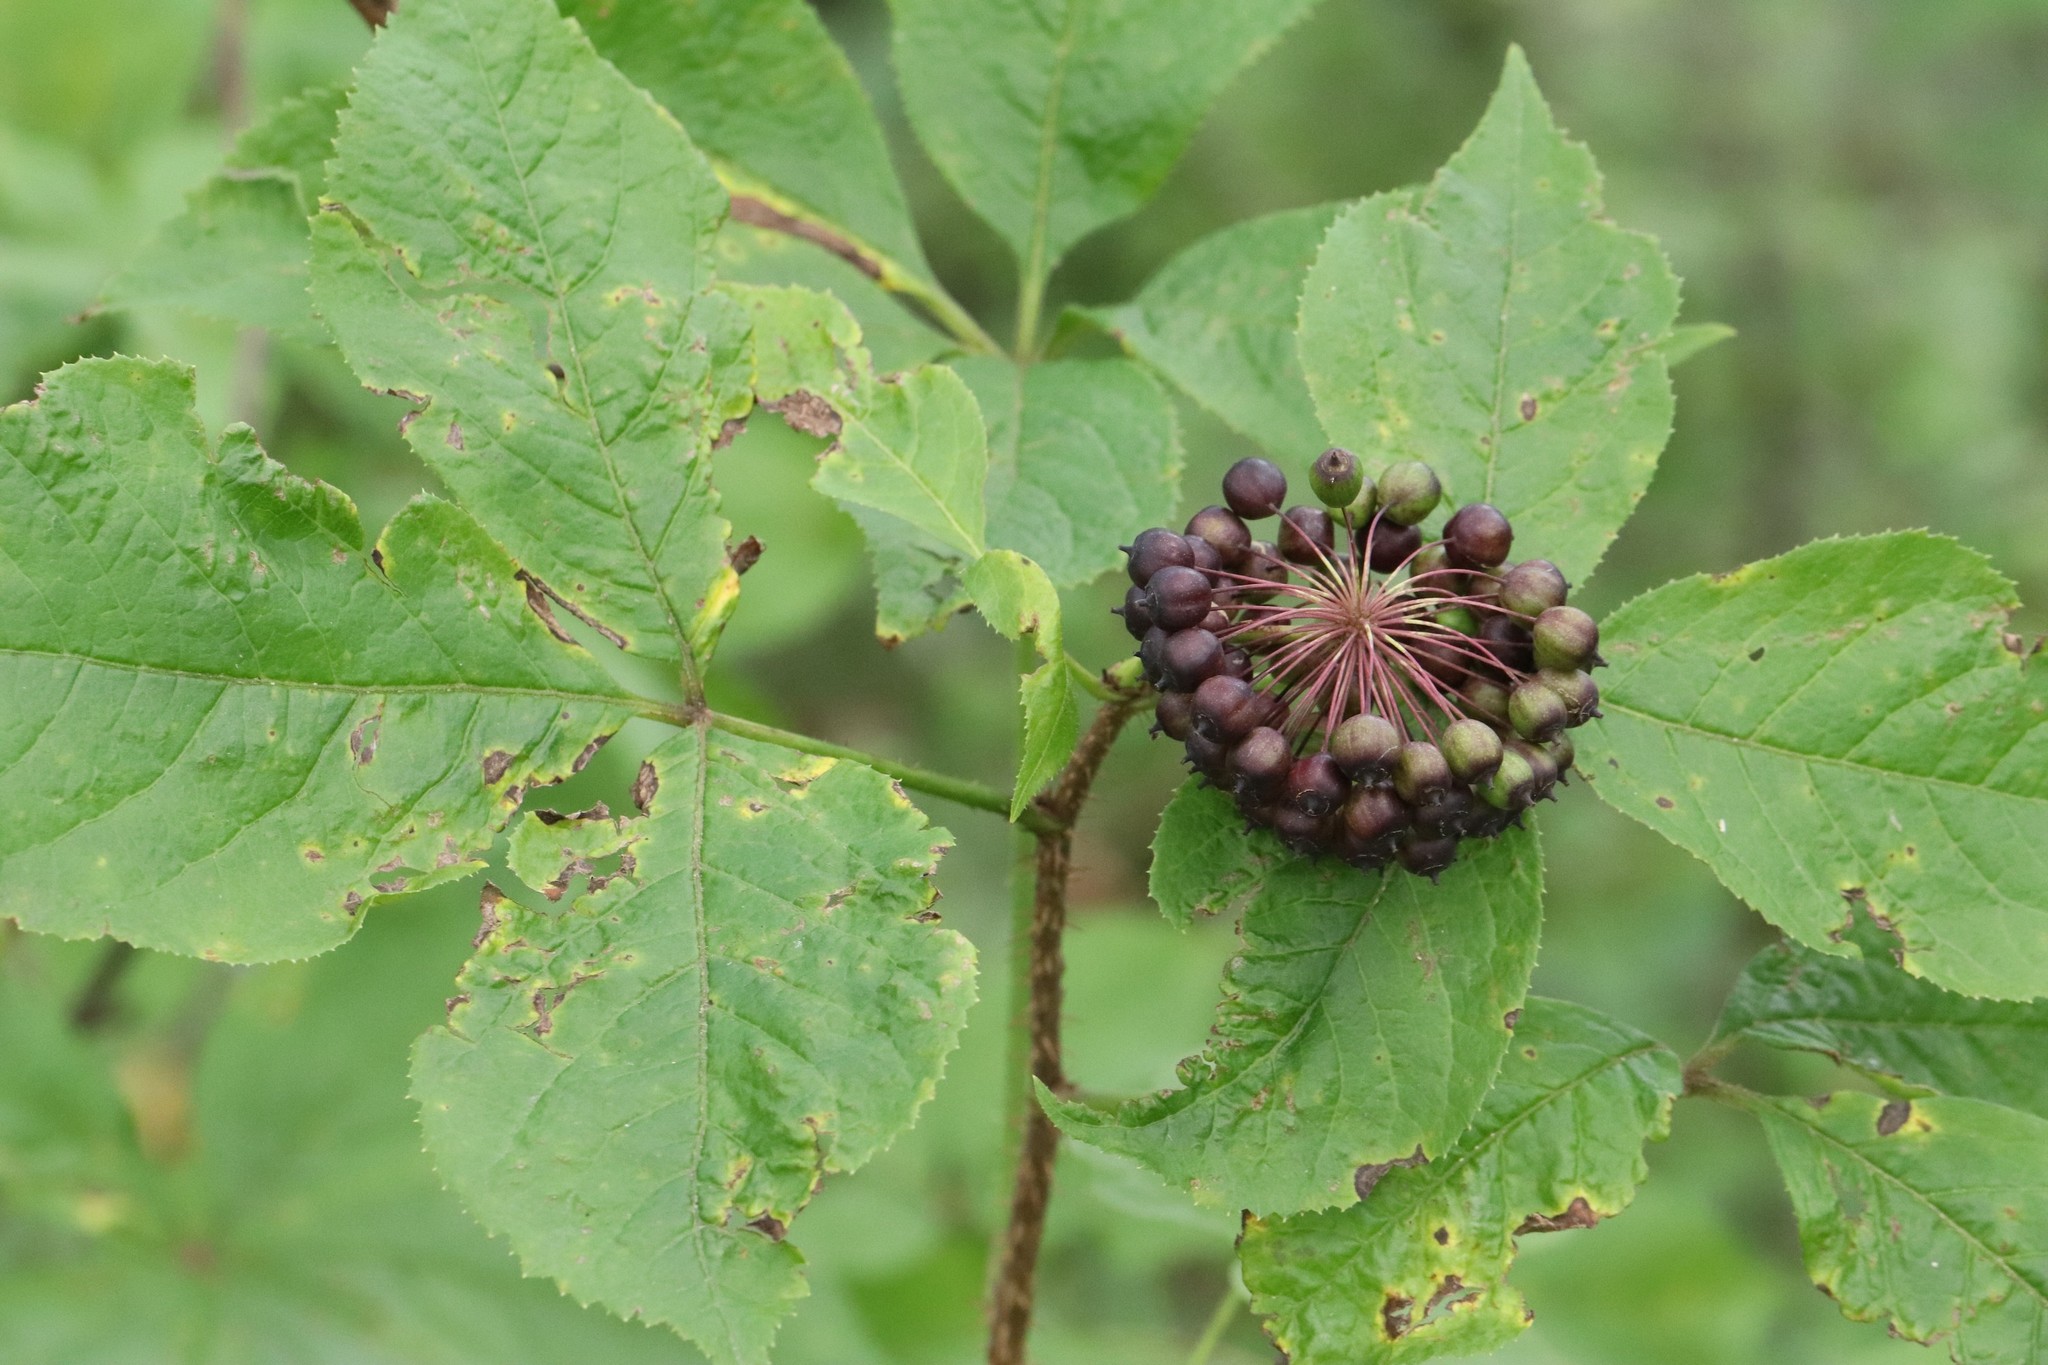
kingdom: Plantae
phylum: Tracheophyta
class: Magnoliopsida
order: Apiales
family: Araliaceae
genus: Eleutherococcus
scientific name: Eleutherococcus senticosus
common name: Siberian-ginseng
